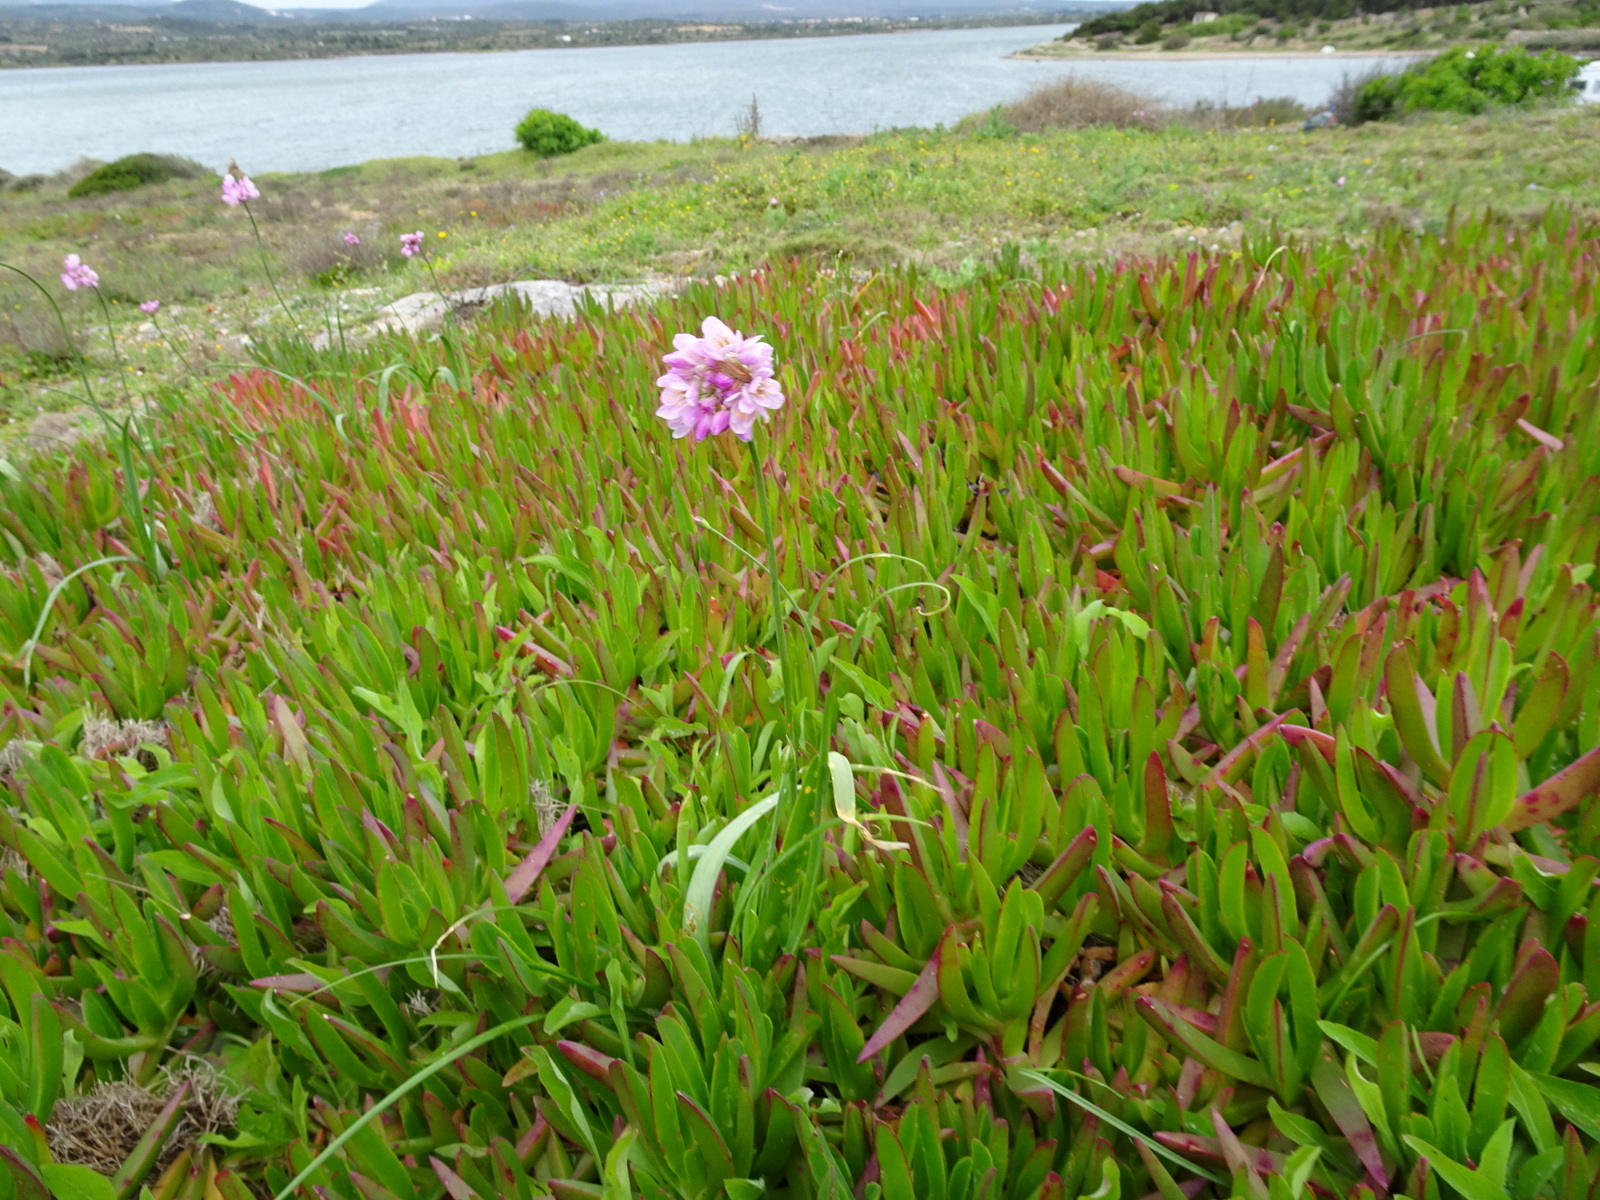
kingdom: Plantae
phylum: Tracheophyta
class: Liliopsida
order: Asparagales
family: Amaryllidaceae
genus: Allium
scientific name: Allium roseum
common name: Rosy garlic
